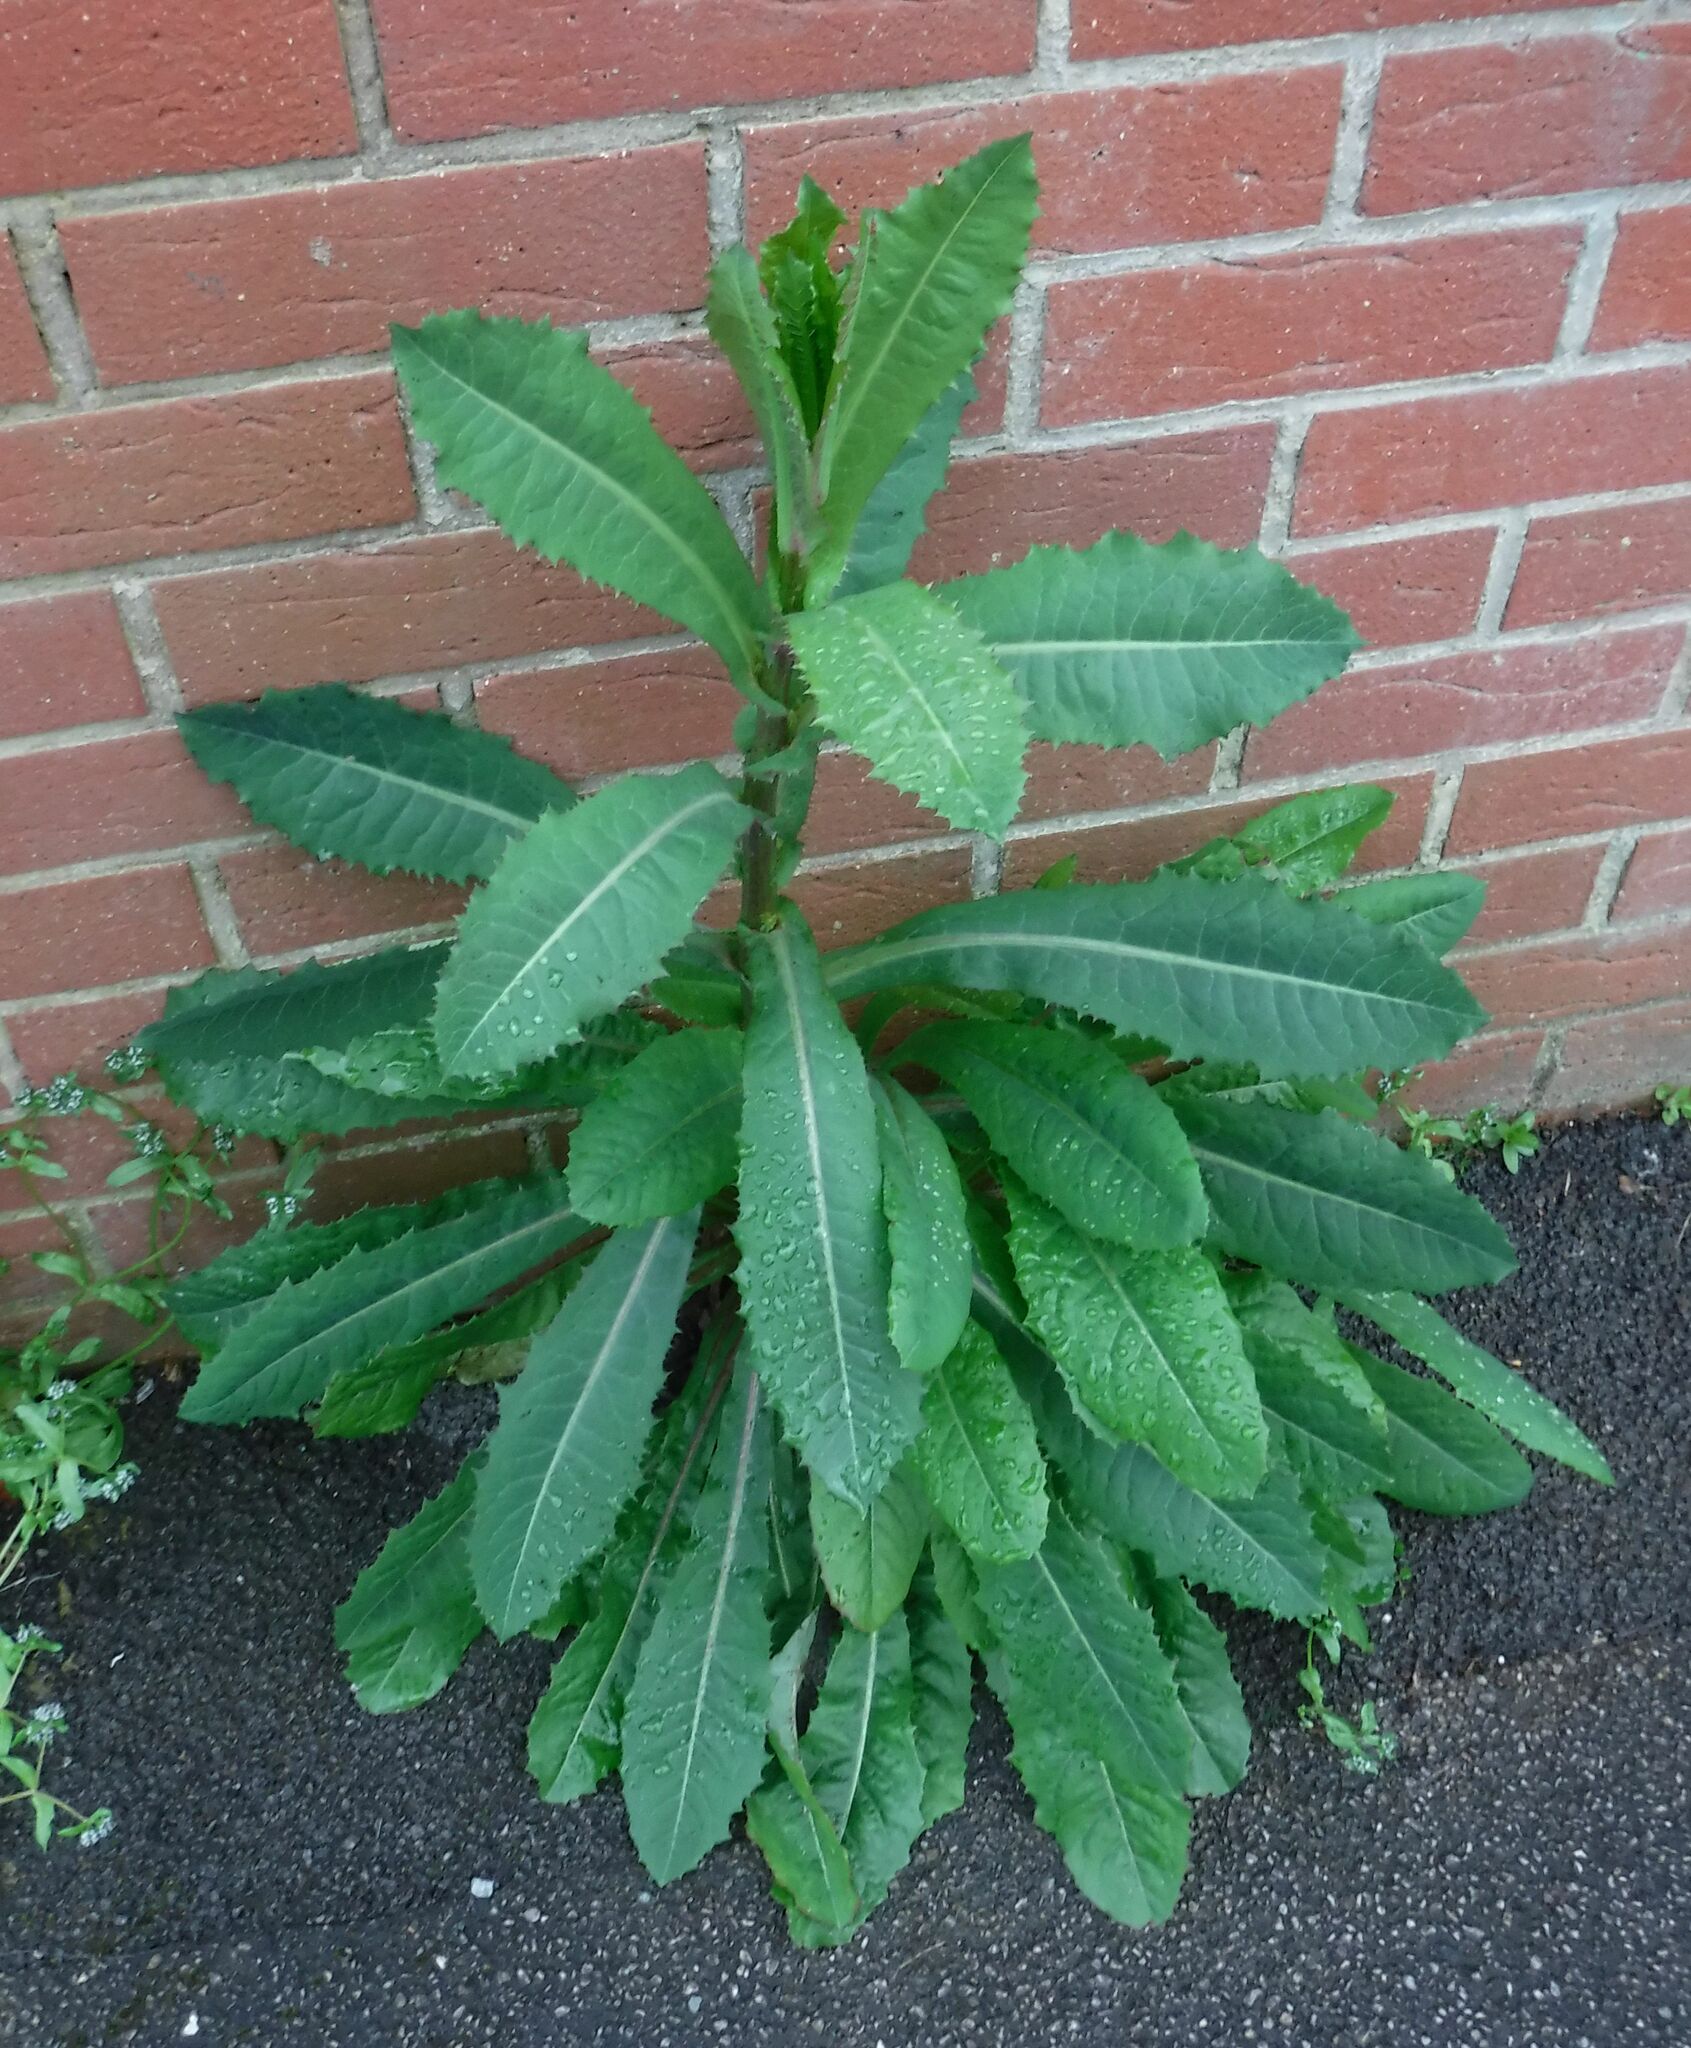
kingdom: Plantae
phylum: Tracheophyta
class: Magnoliopsida
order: Asterales
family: Asteraceae
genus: Lactuca
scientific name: Lactuca virosa
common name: Great lettuce
